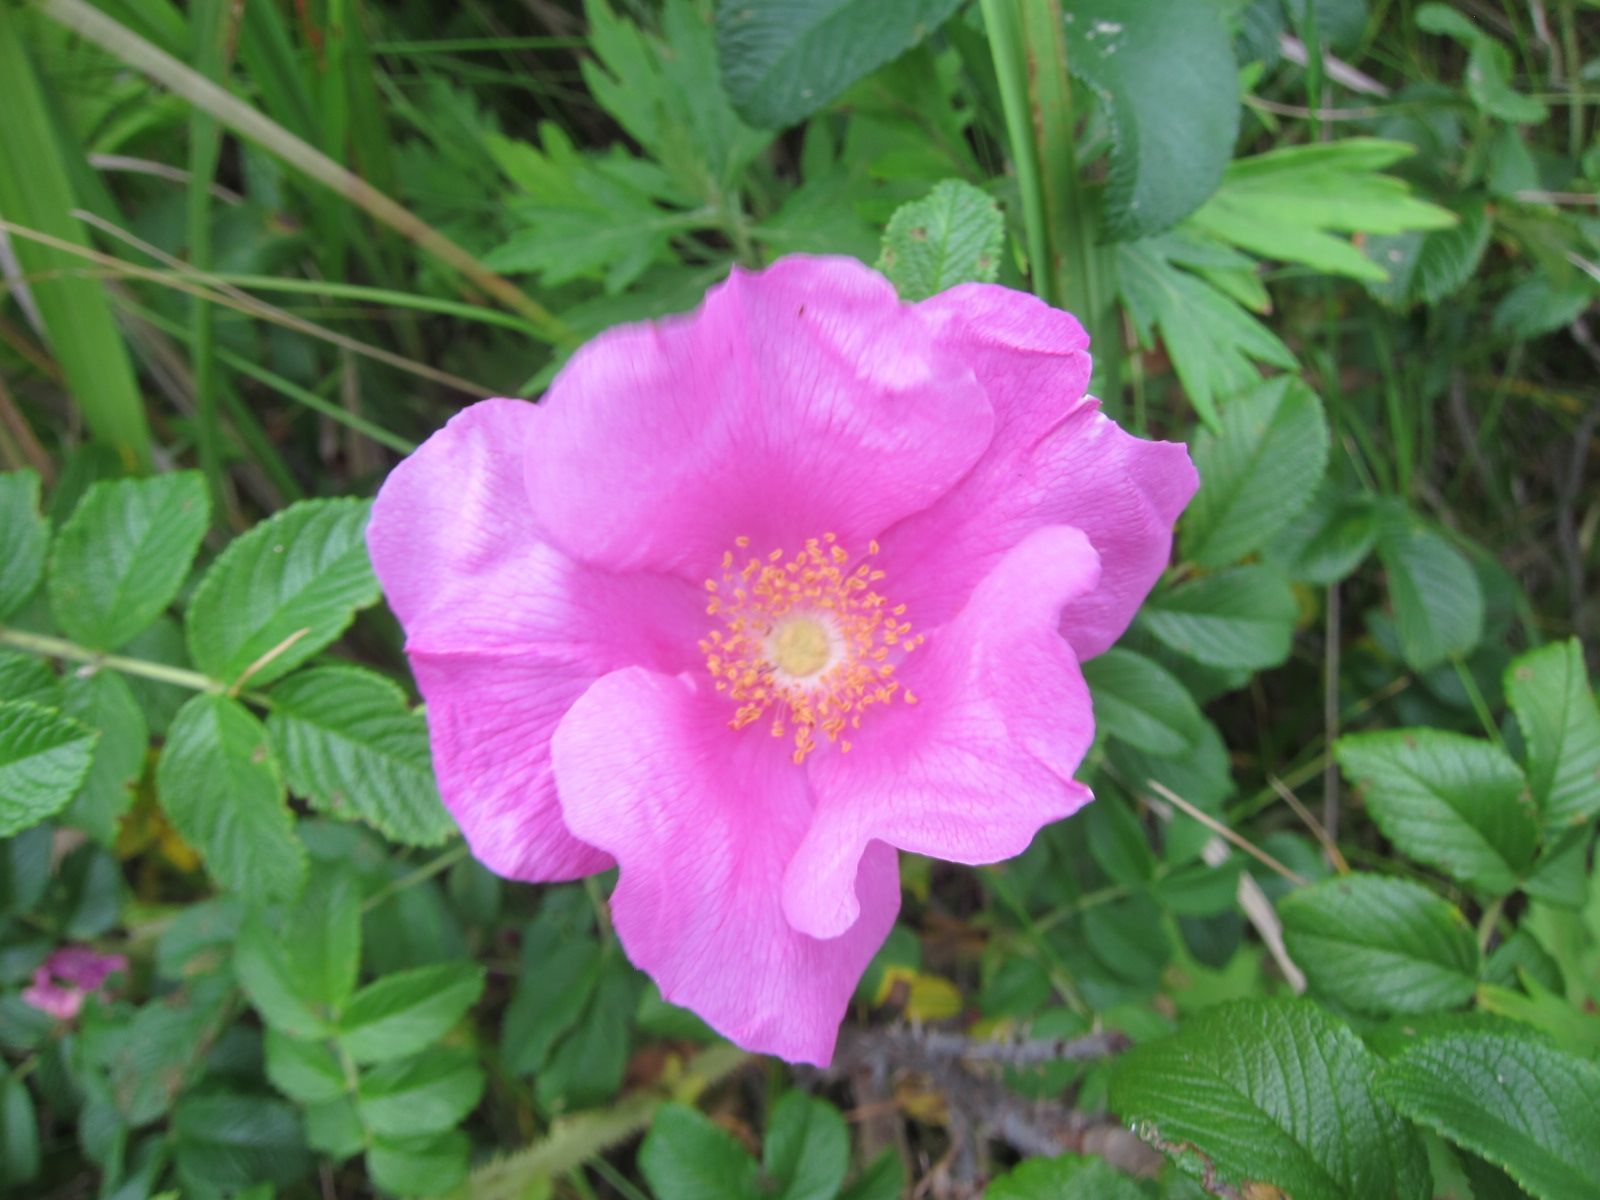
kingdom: Plantae
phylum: Tracheophyta
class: Magnoliopsida
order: Rosales
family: Rosaceae
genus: Rosa
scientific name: Rosa rugosa
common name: Japanese rose
